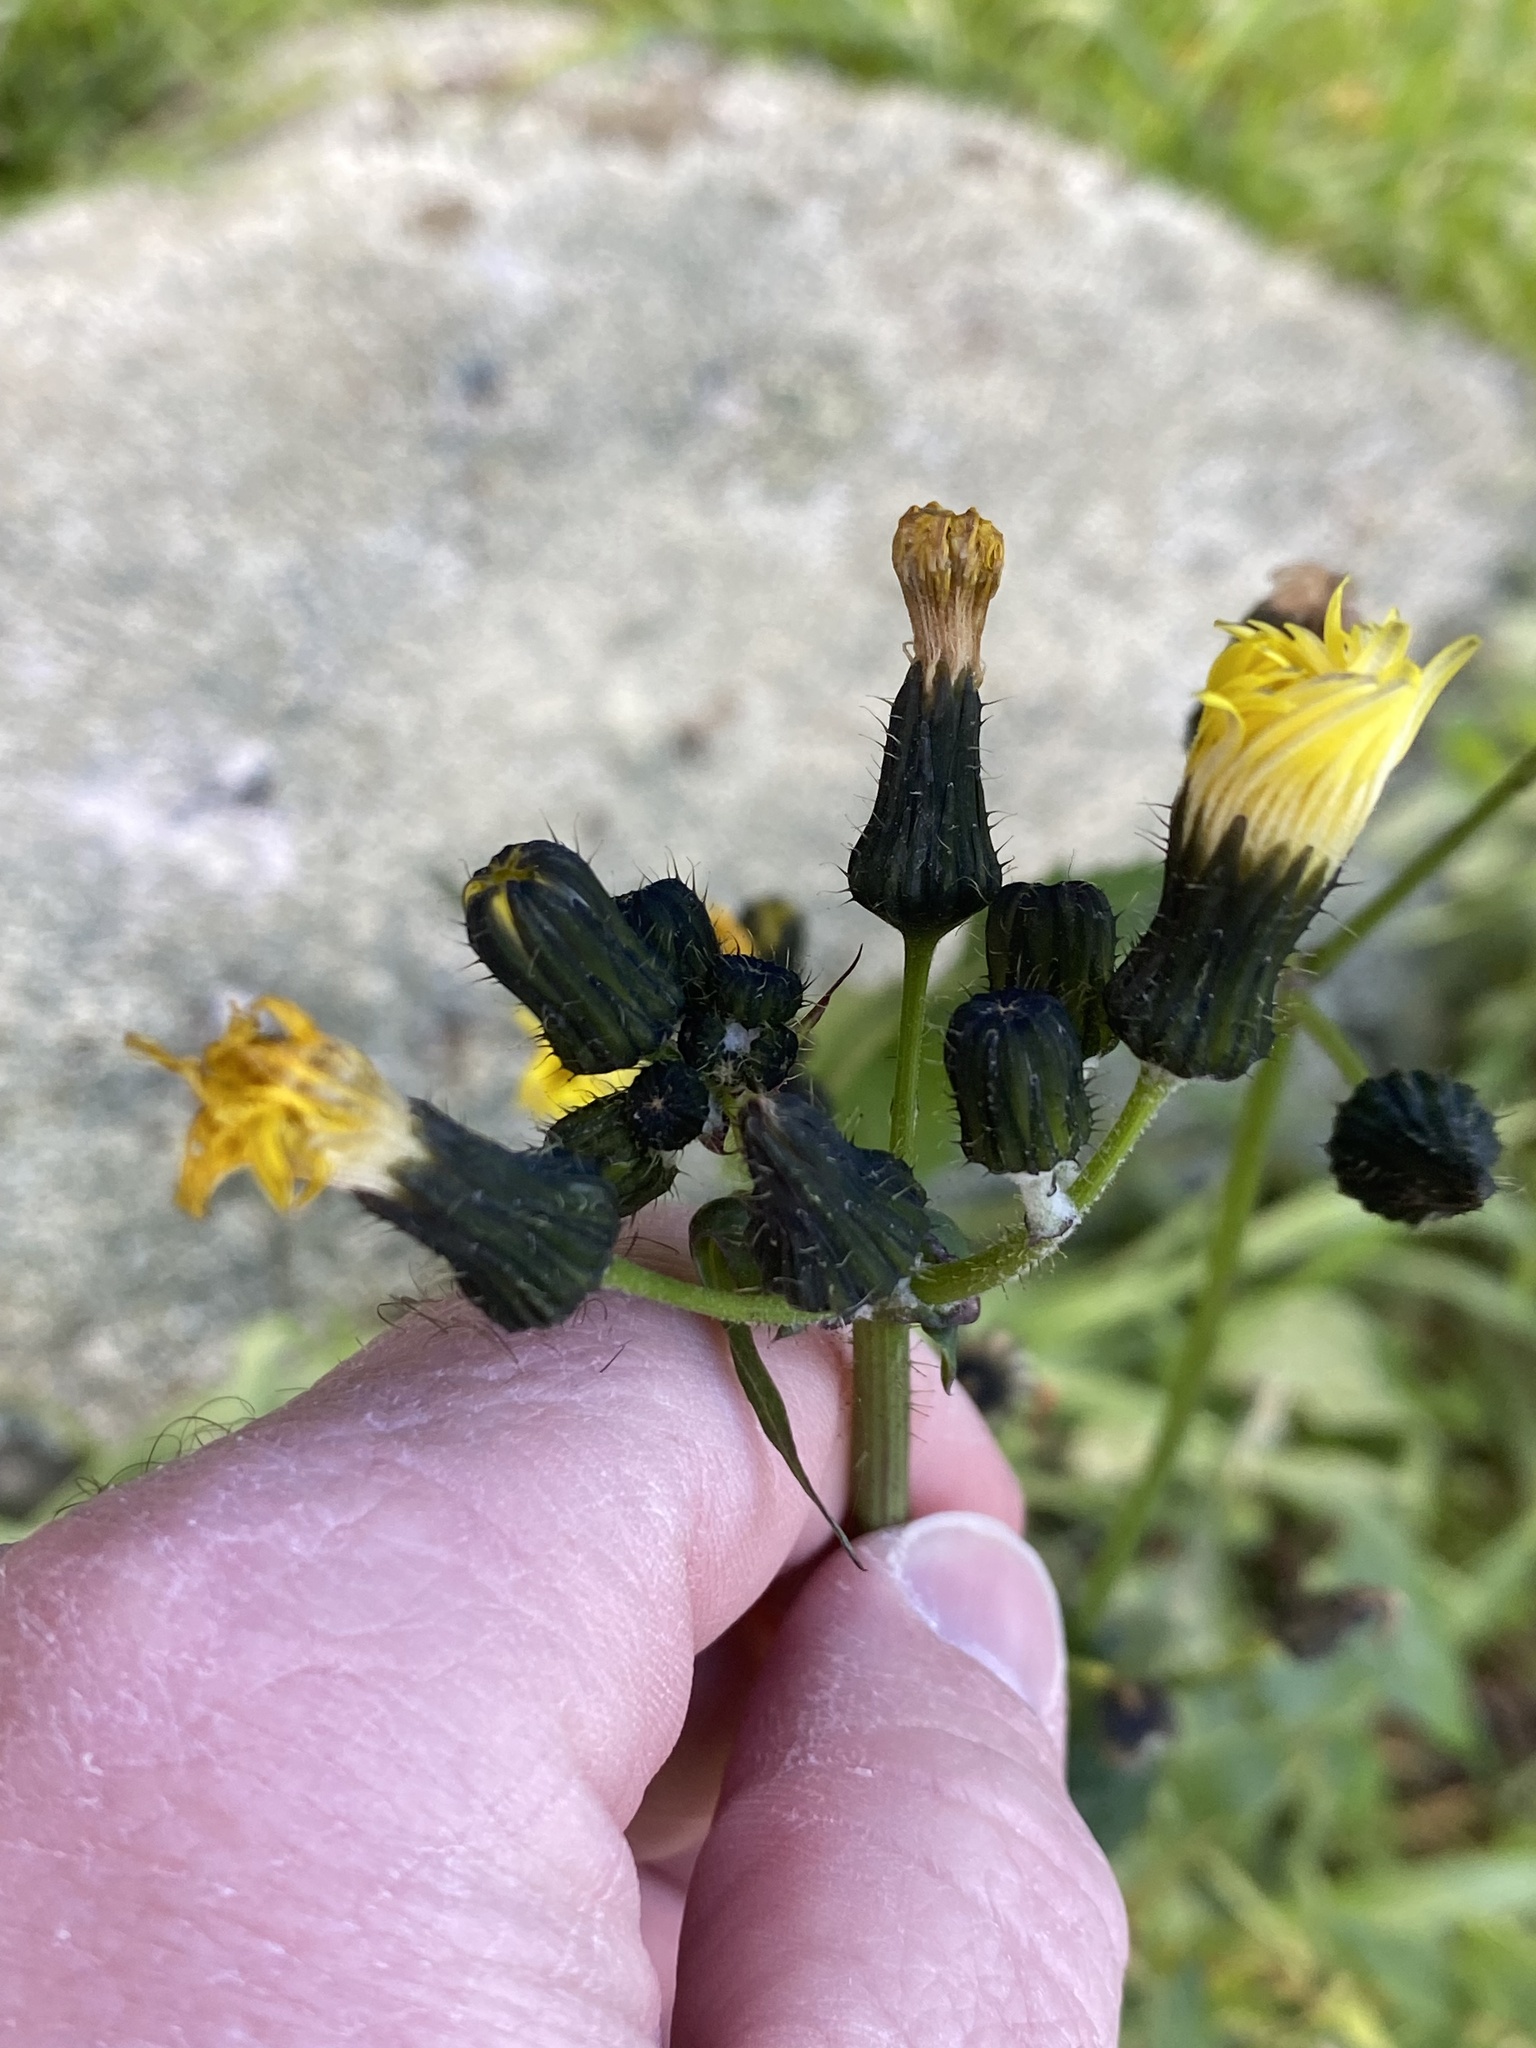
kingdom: Plantae
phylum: Tracheophyta
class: Magnoliopsida
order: Asterales
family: Asteraceae
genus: Sonchus
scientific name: Sonchus oleraceus
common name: Common sowthistle
